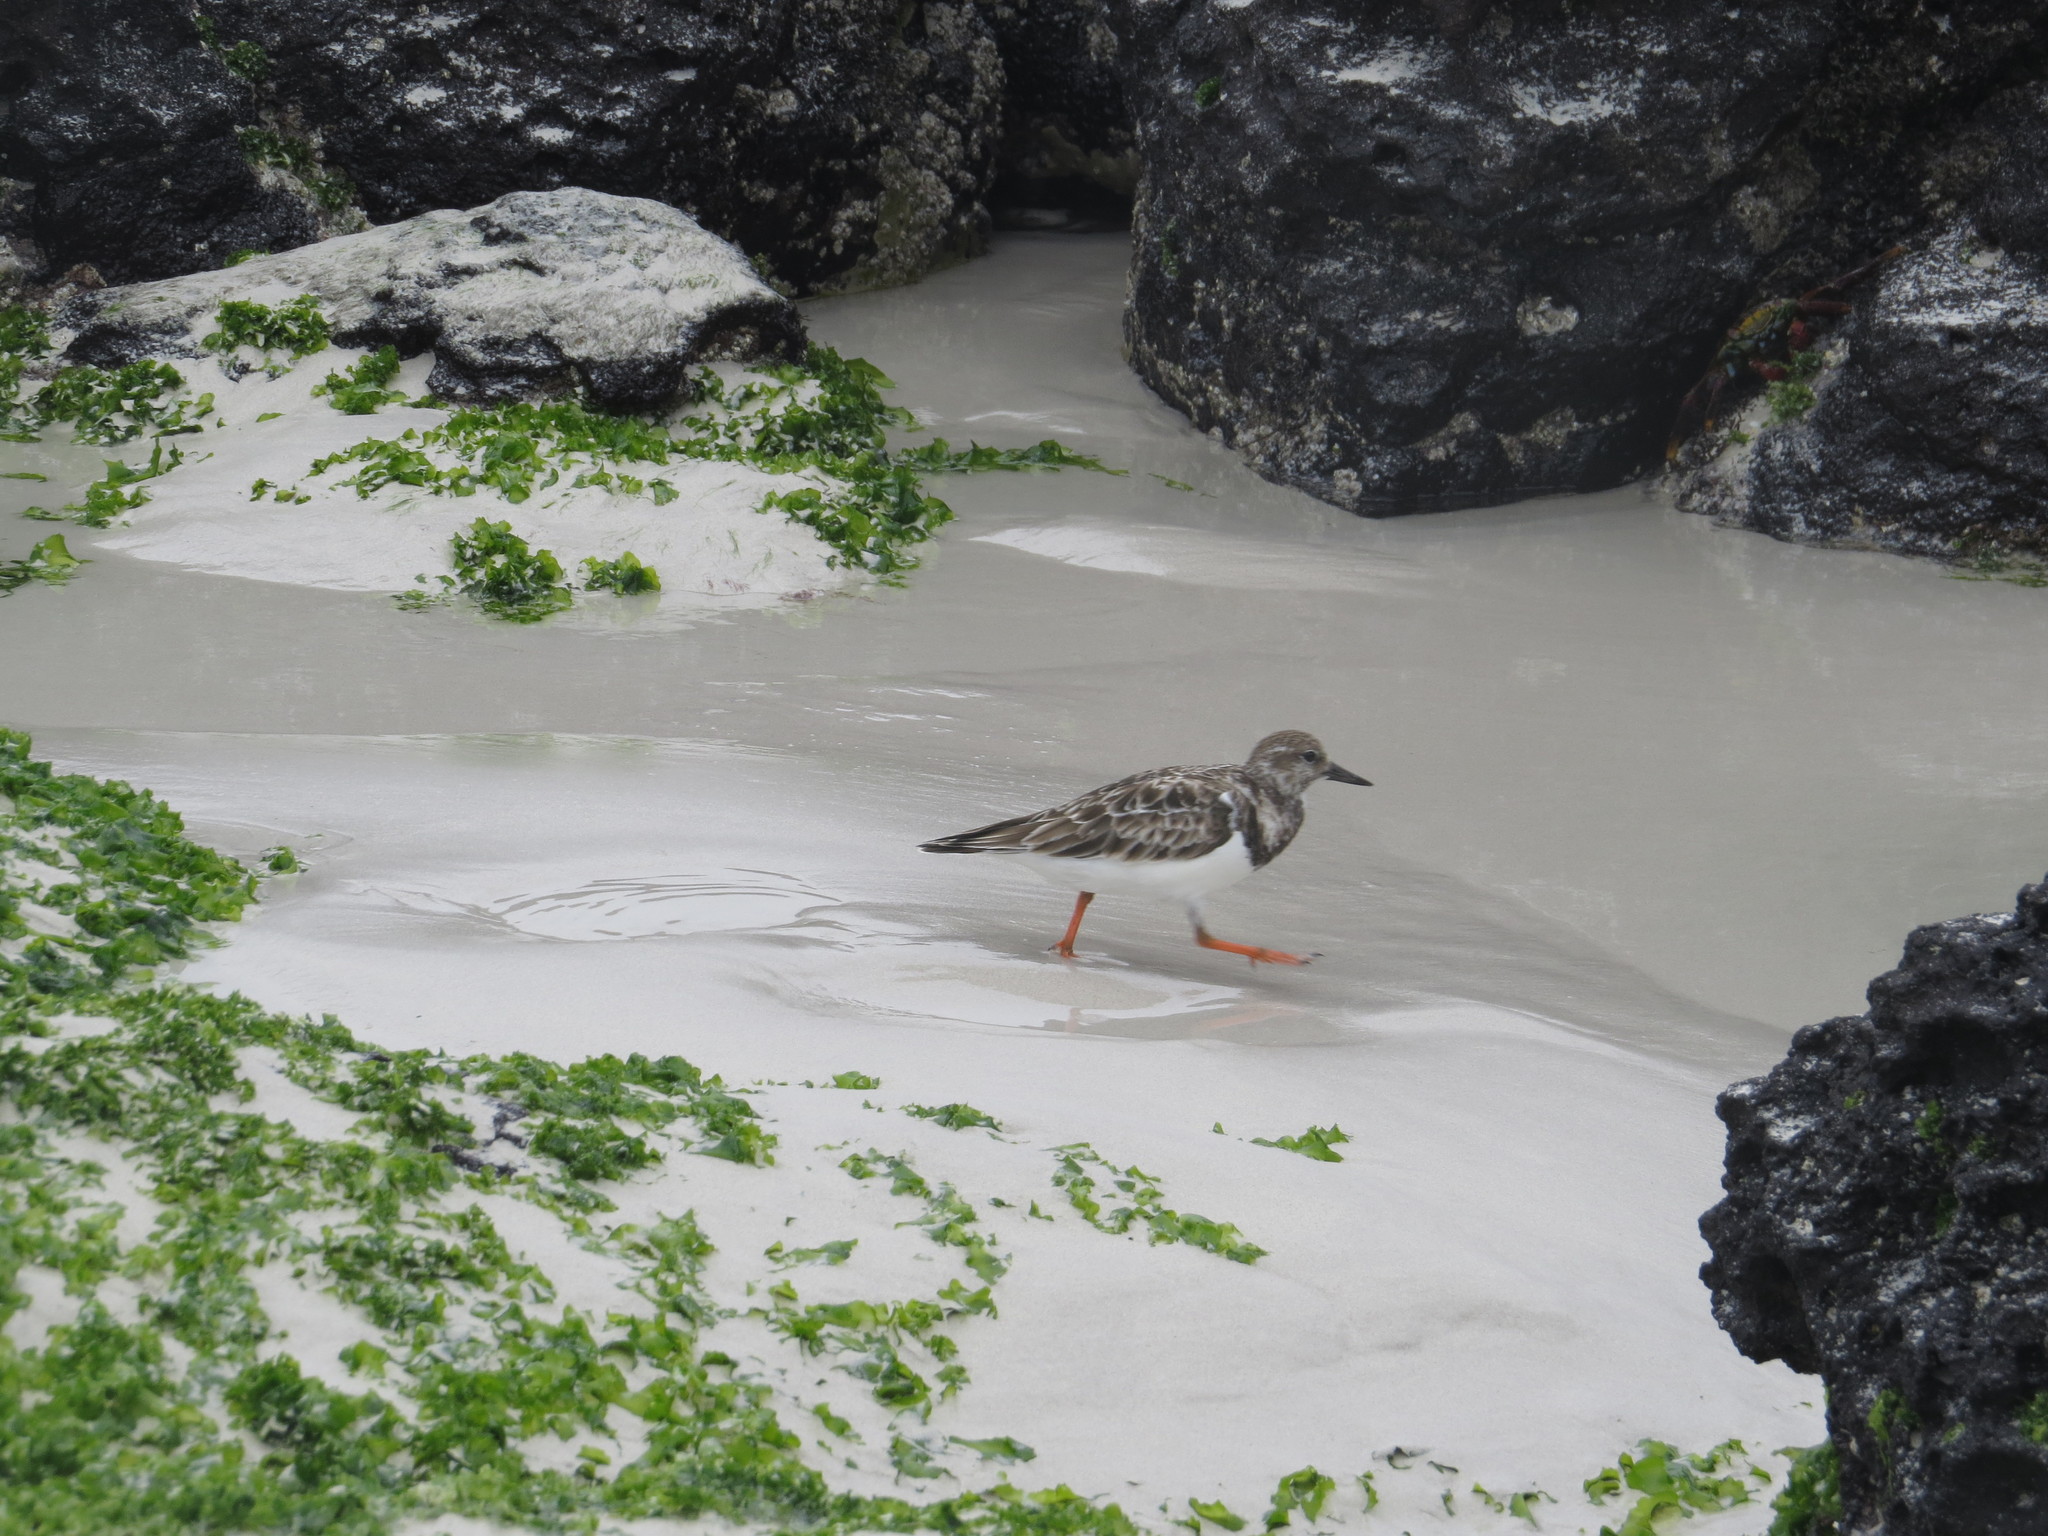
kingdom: Animalia
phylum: Chordata
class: Aves
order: Charadriiformes
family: Scolopacidae
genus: Arenaria
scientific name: Arenaria interpres
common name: Ruddy turnstone
